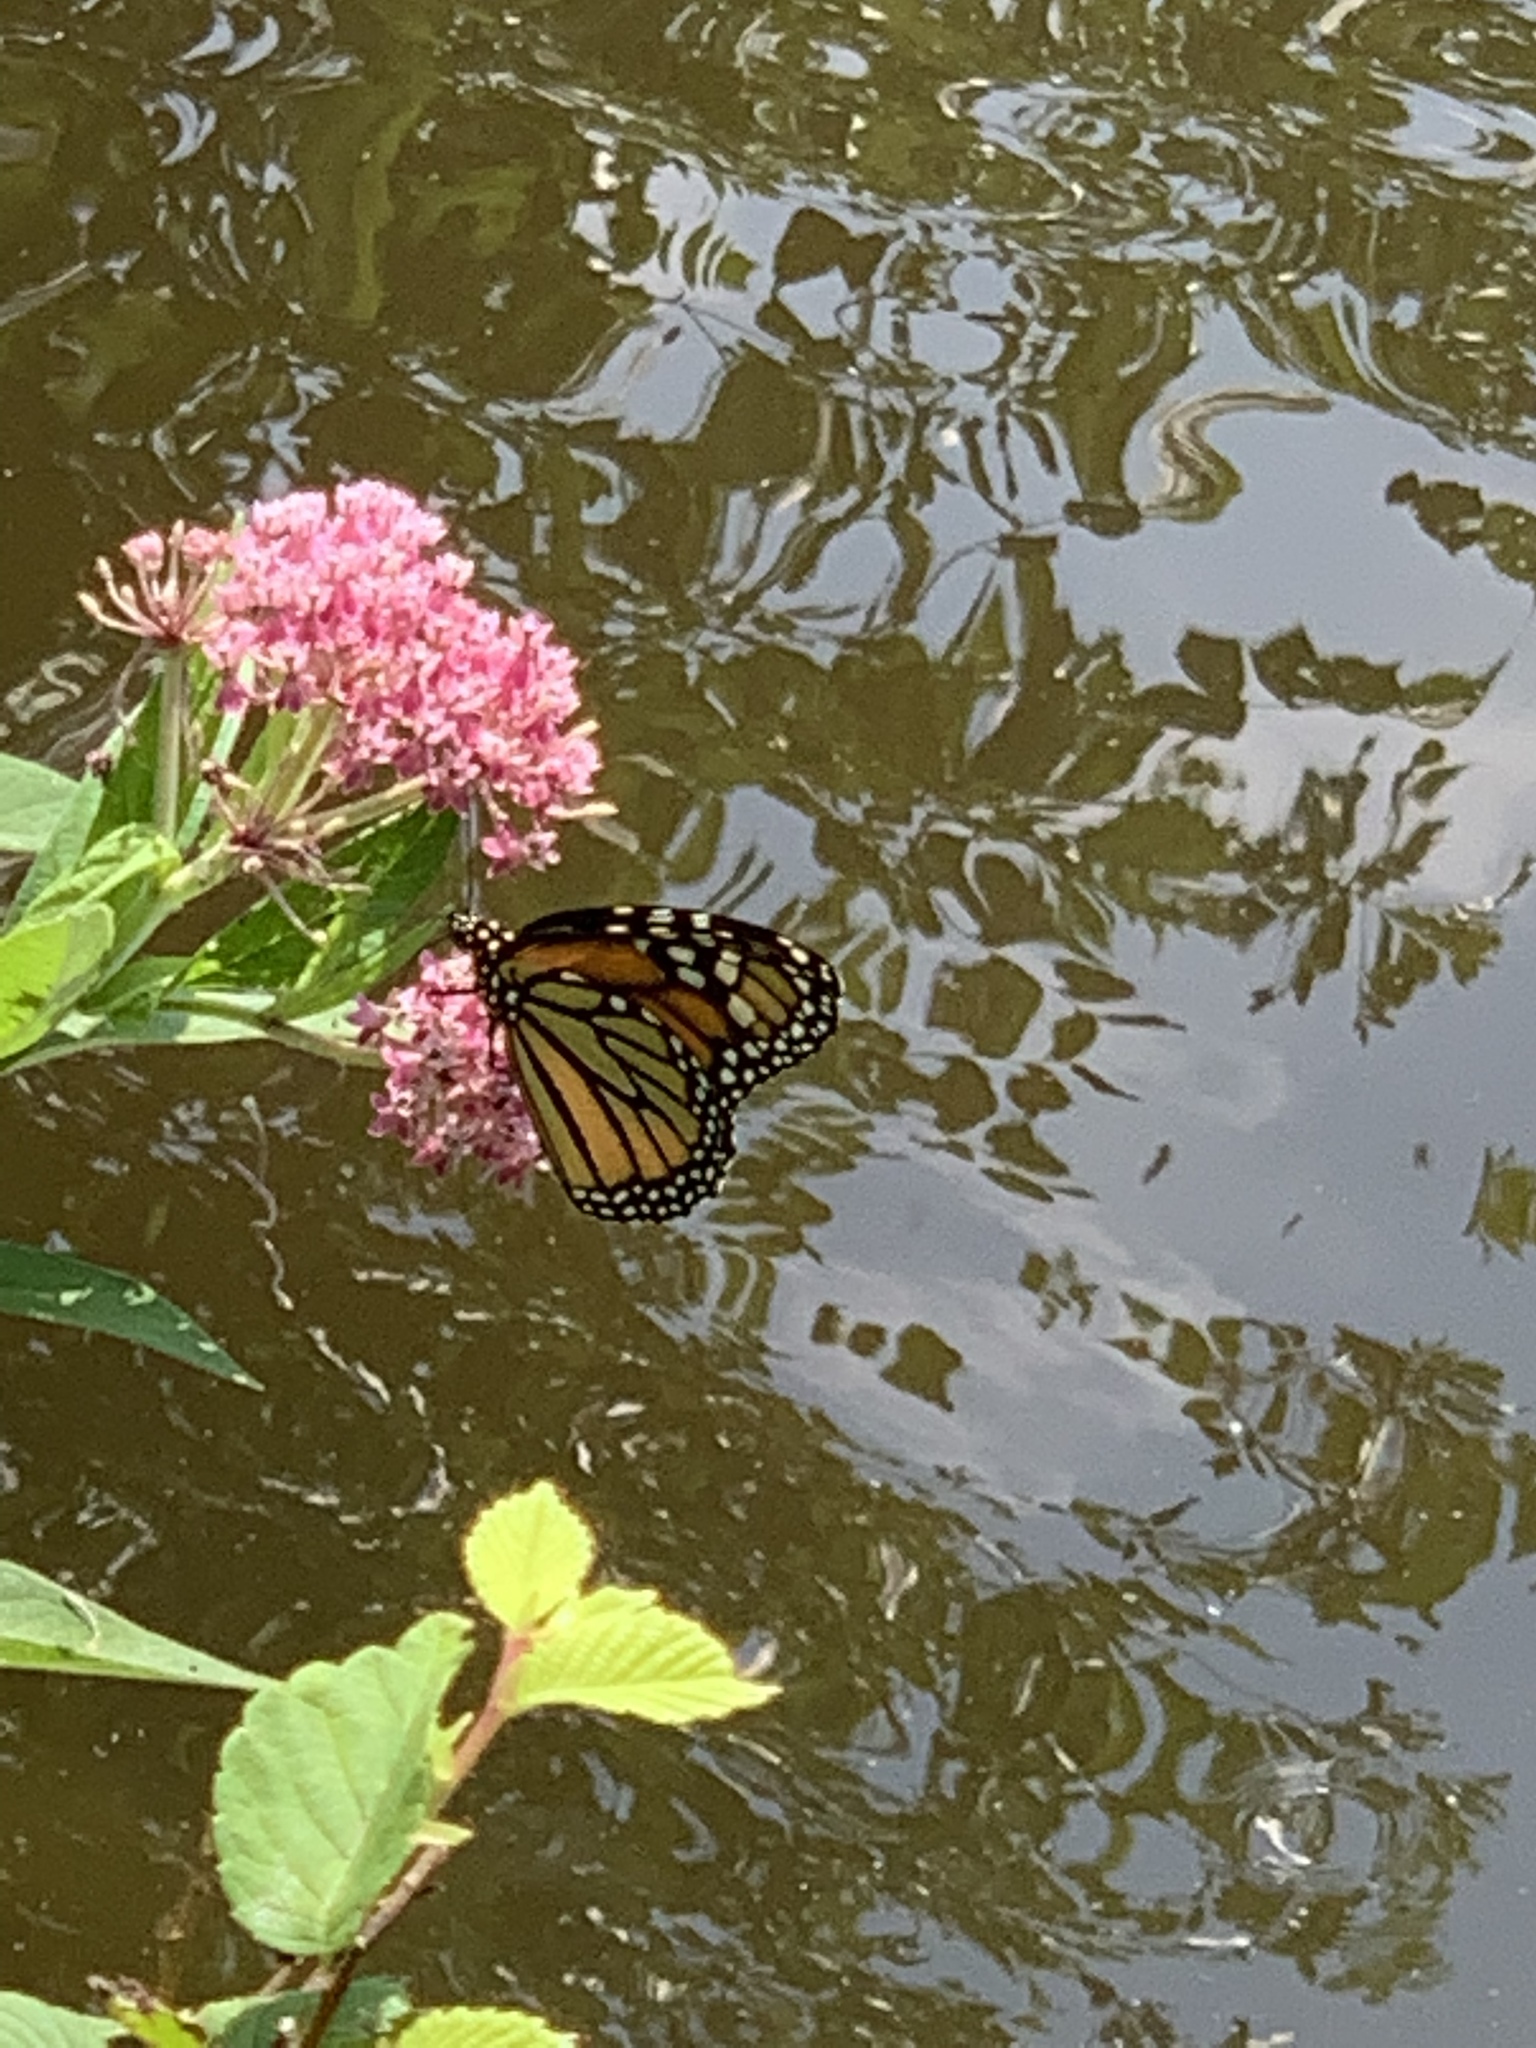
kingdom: Plantae
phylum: Tracheophyta
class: Magnoliopsida
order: Gentianales
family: Apocynaceae
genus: Asclepias
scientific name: Asclepias incarnata
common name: Swamp milkweed
